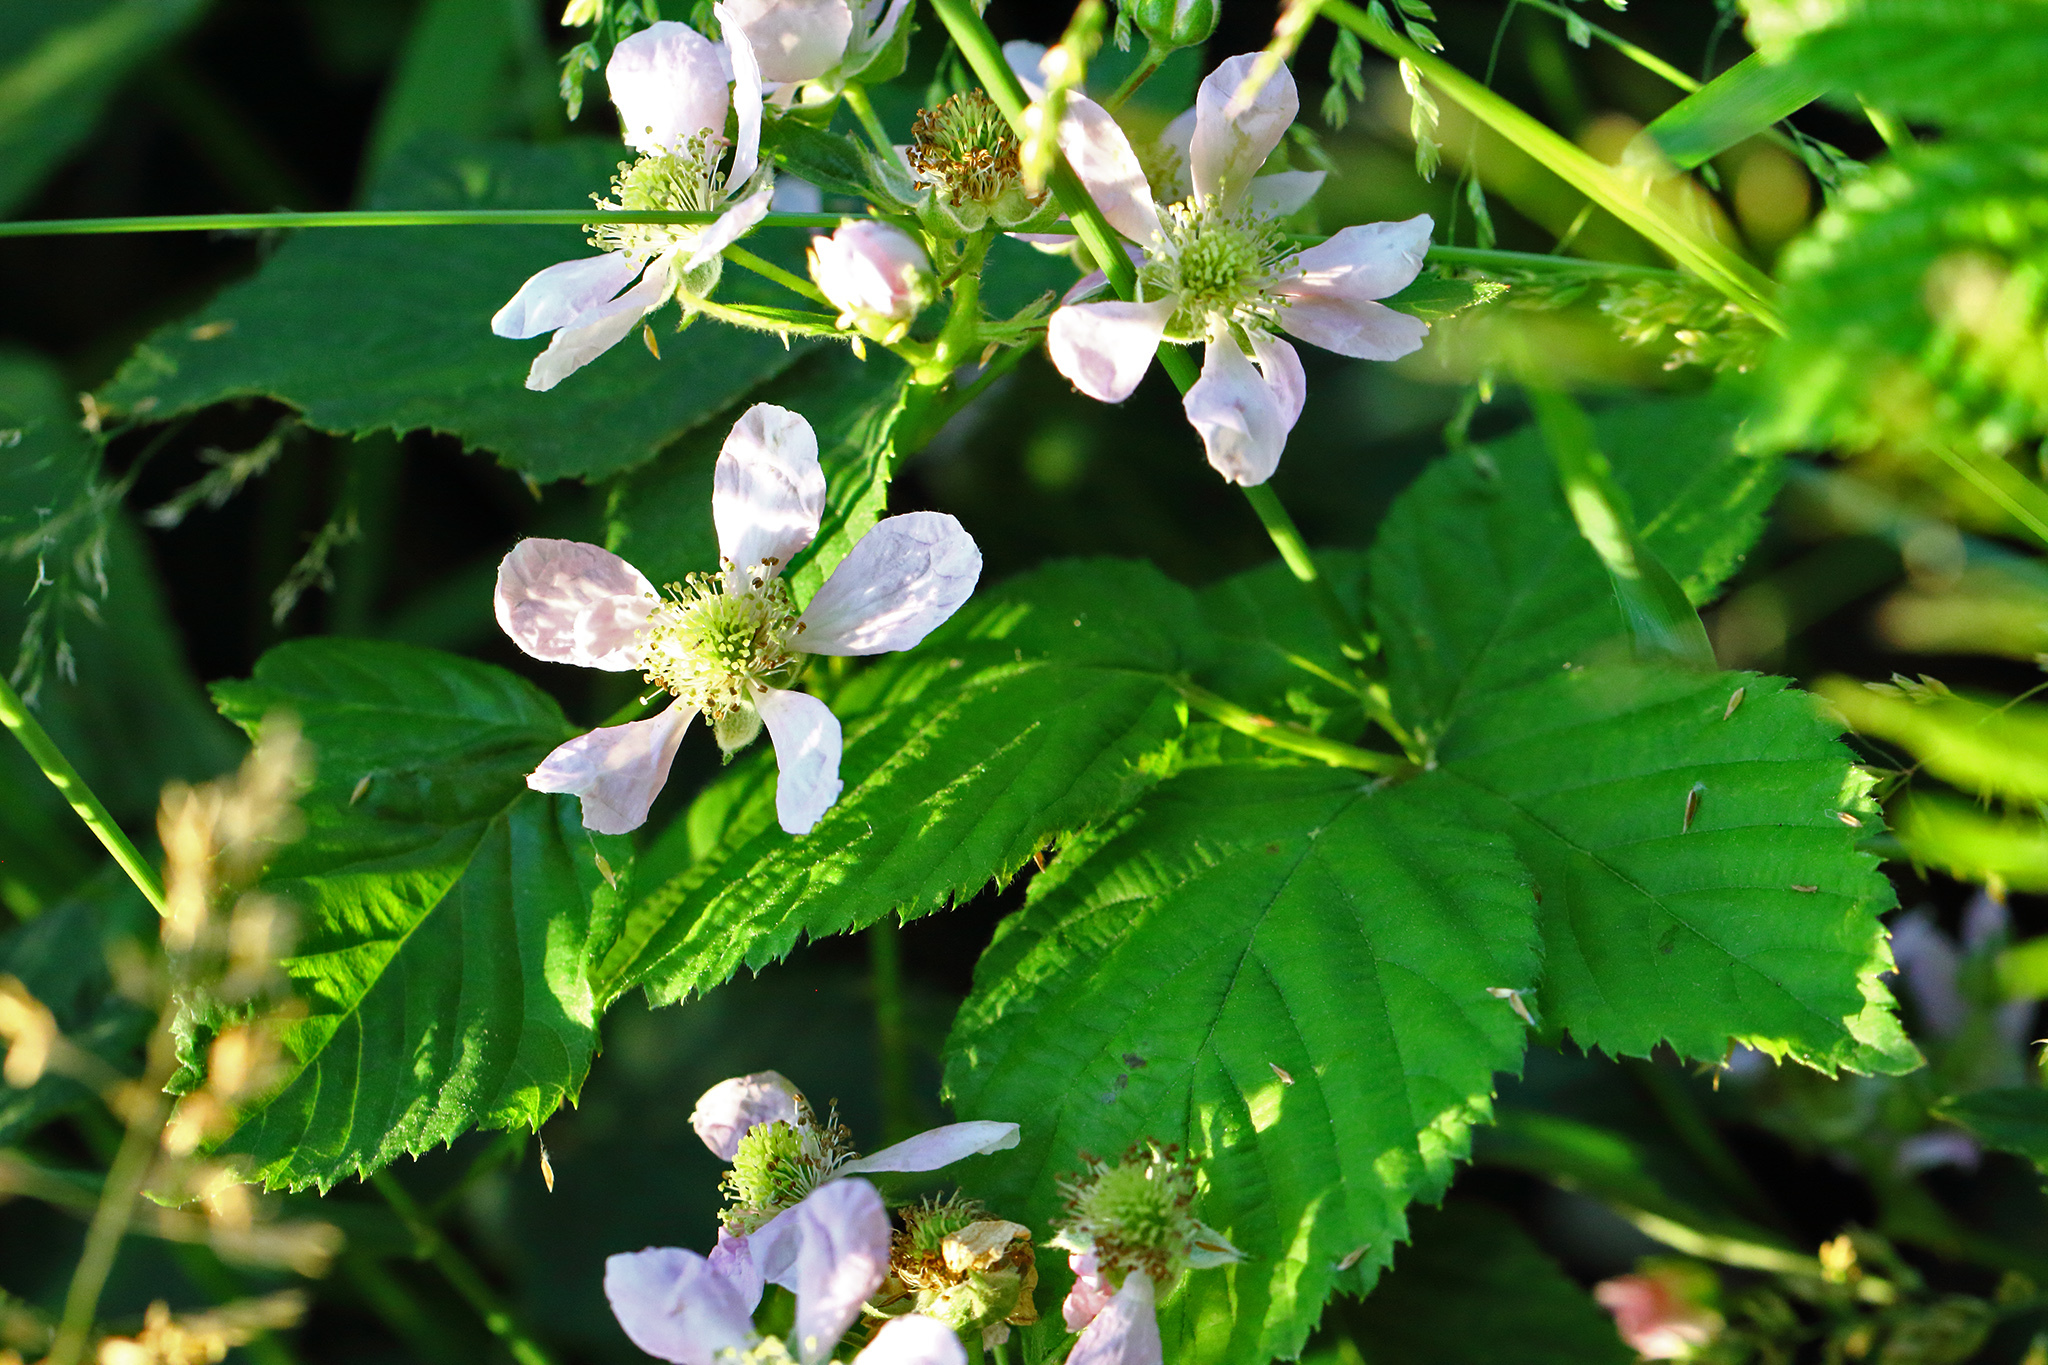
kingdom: Plantae
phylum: Tracheophyta
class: Magnoliopsida
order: Rosales
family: Rosaceae
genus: Rubus
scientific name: Rubus armeniacus
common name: Himalayan blackberry
